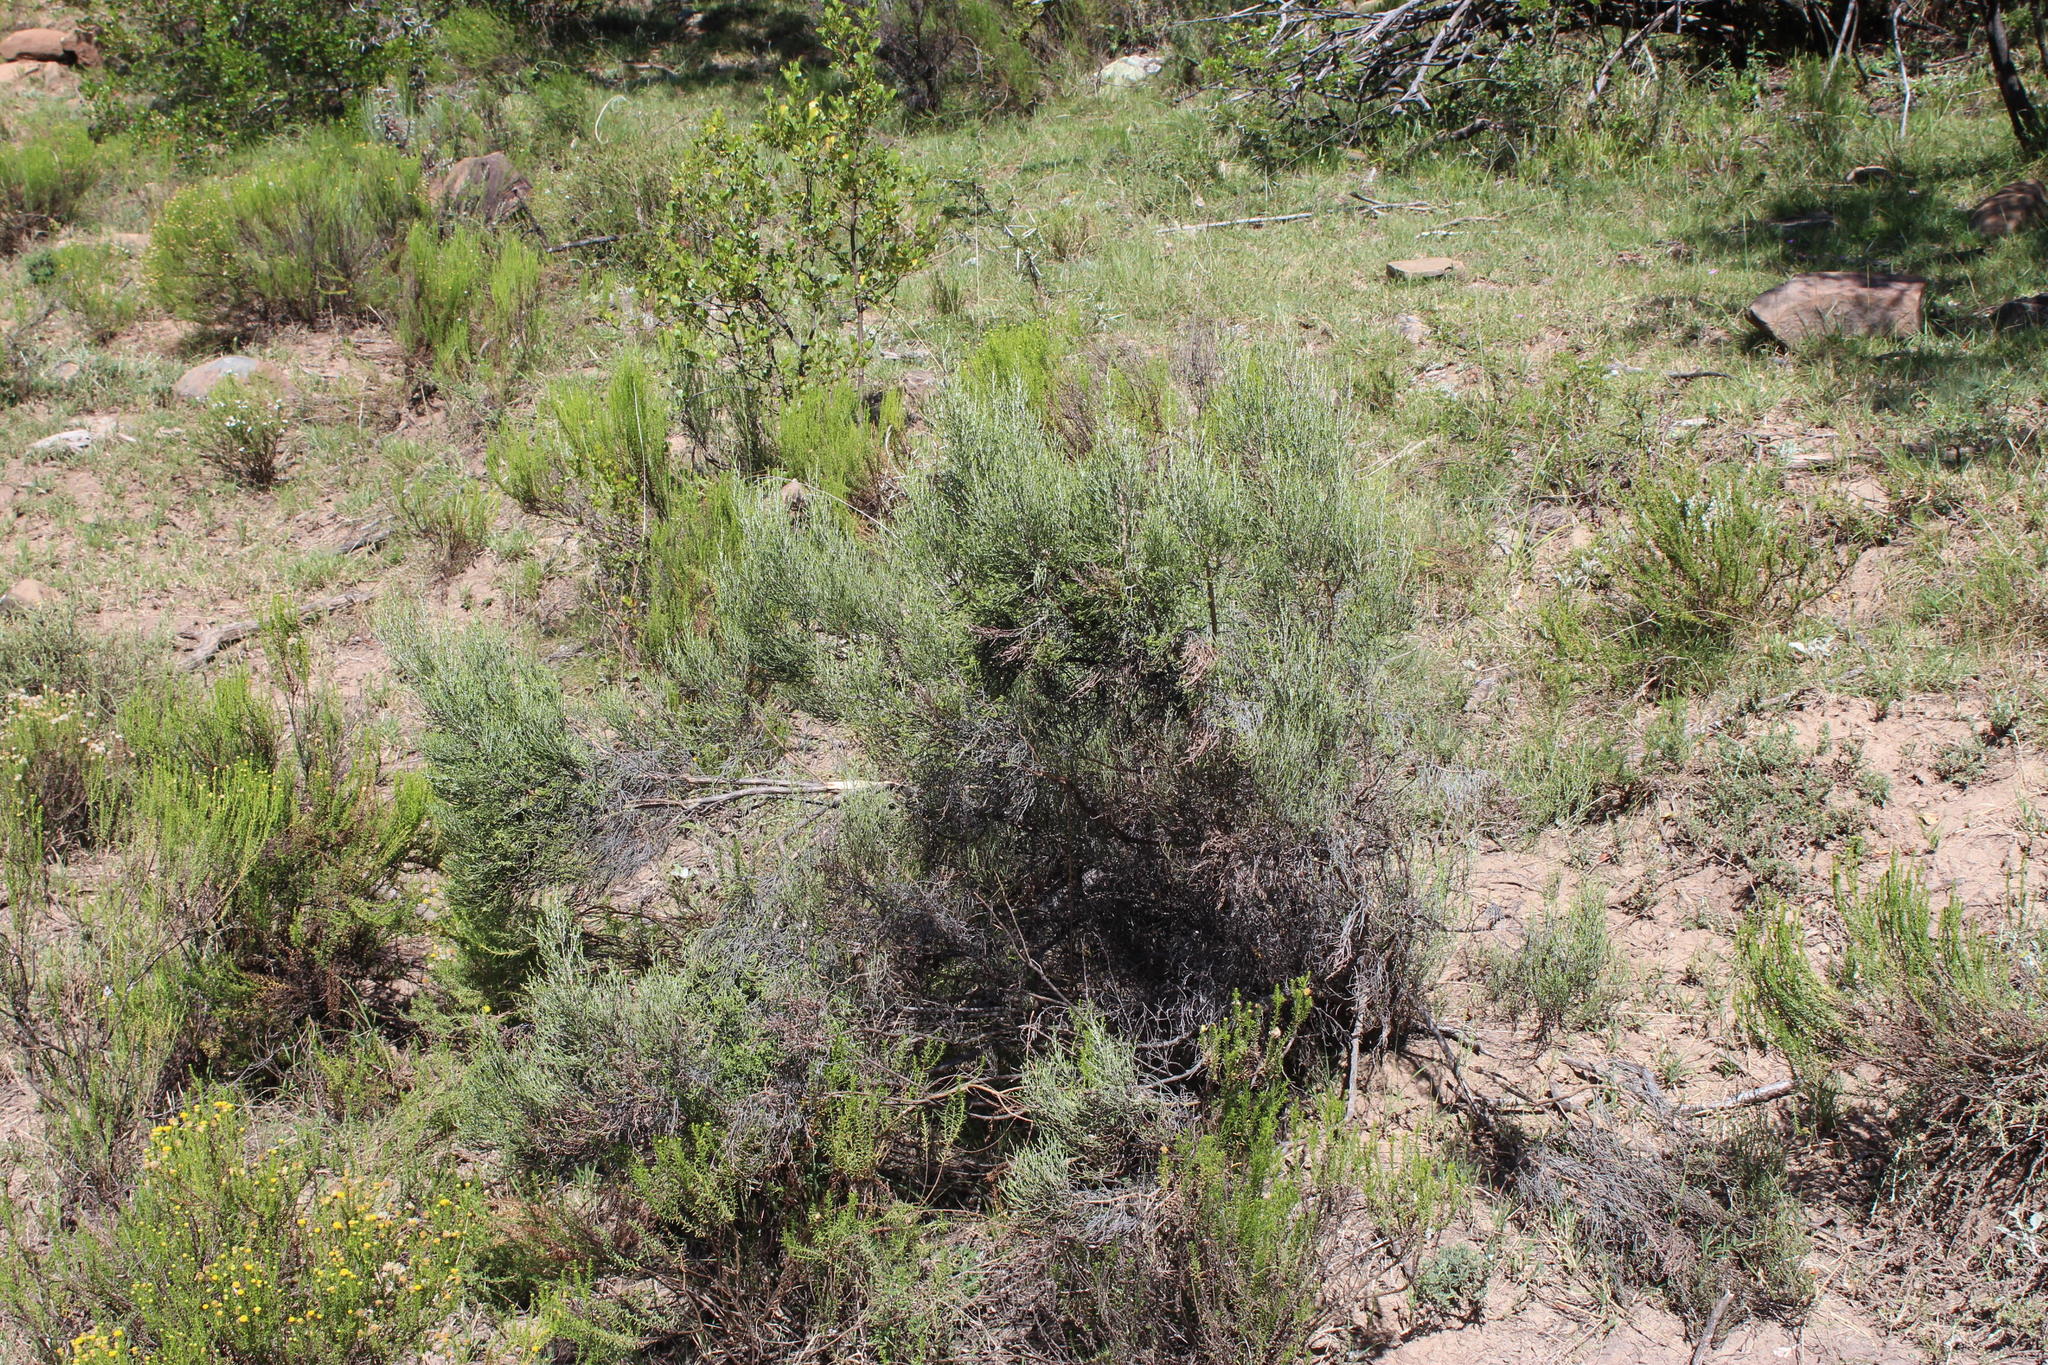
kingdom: Plantae
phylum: Tracheophyta
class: Magnoliopsida
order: Asterales
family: Asteraceae
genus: Dicerothamnus
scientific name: Dicerothamnus rhinocerotis
